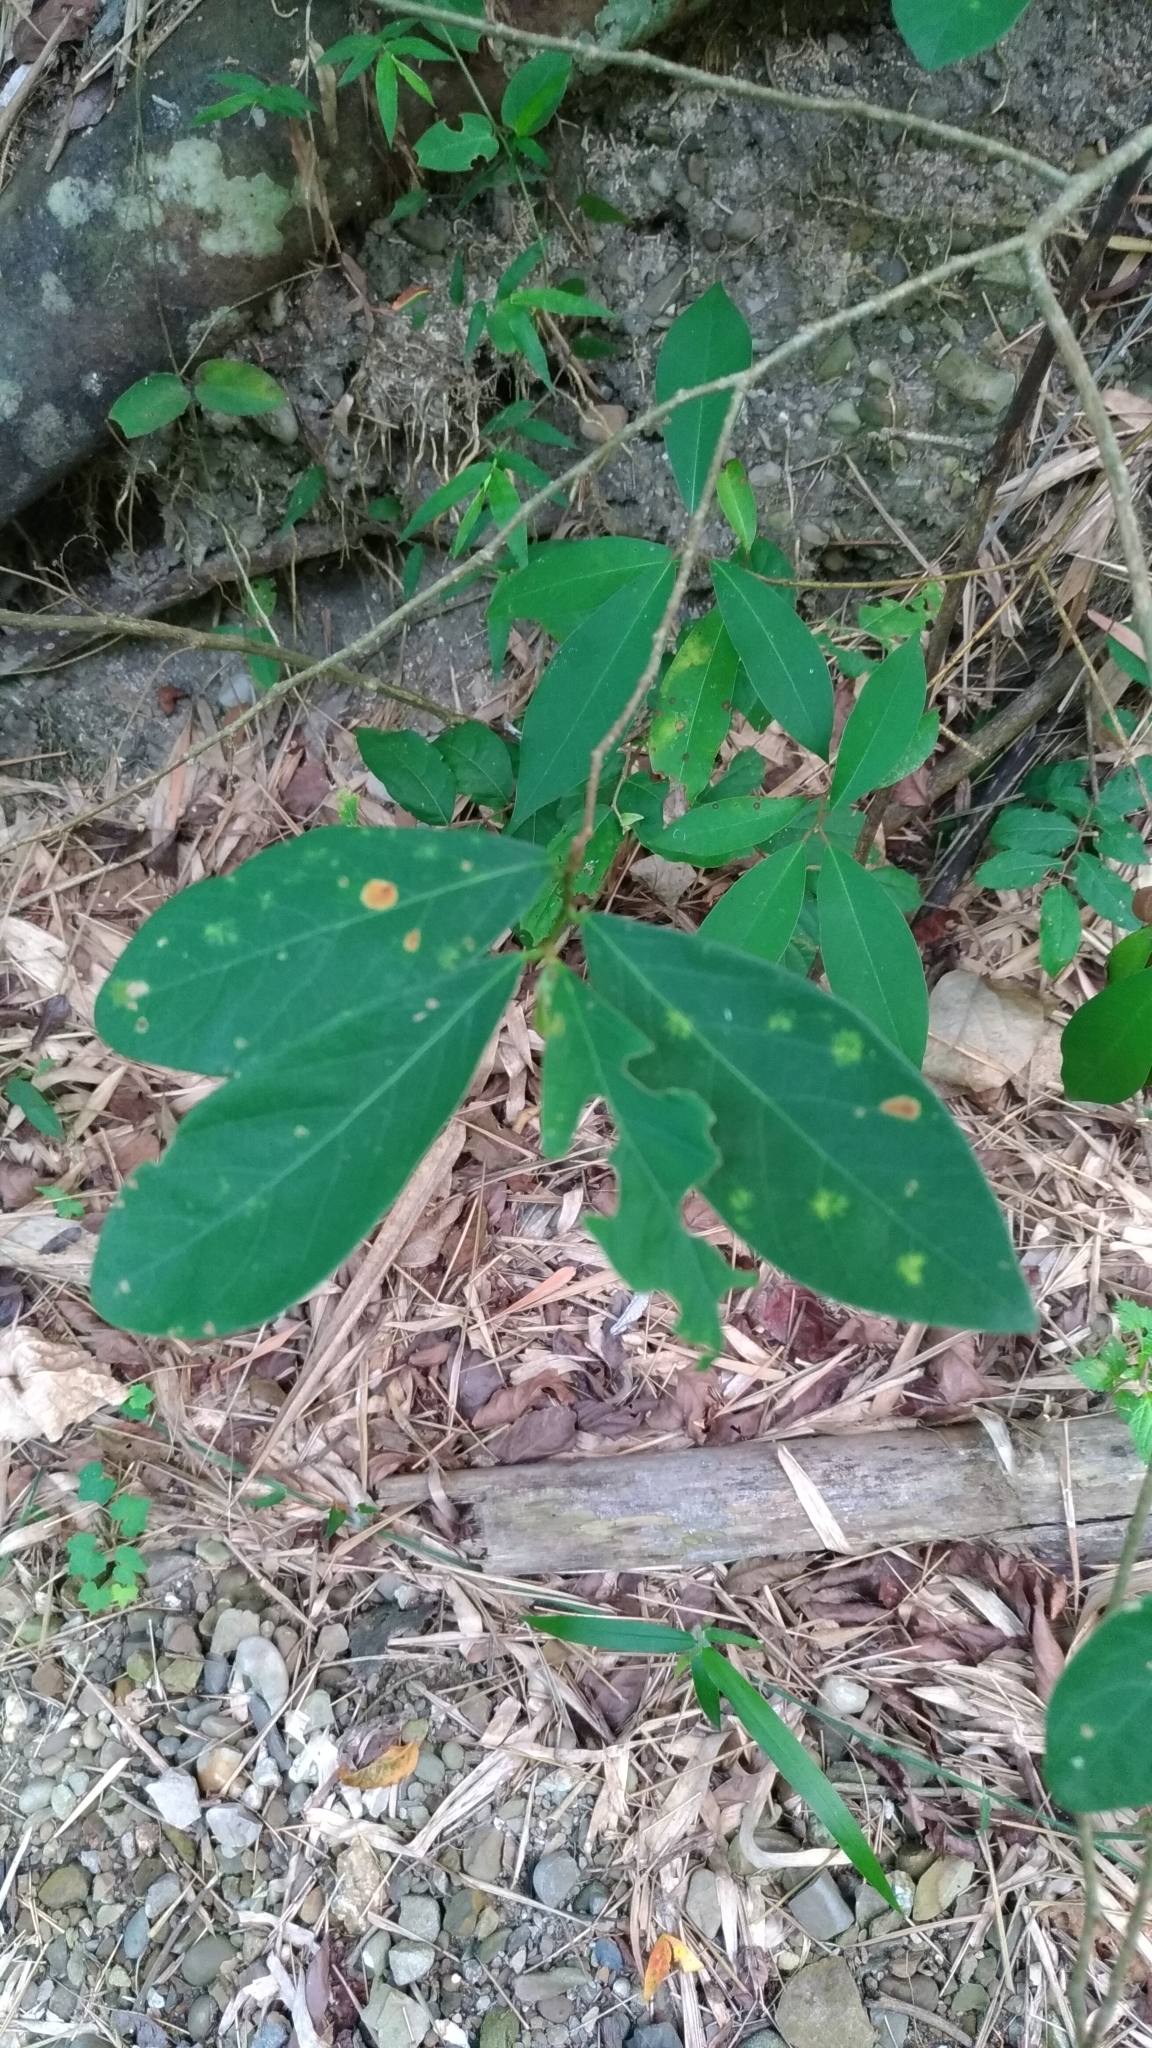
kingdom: Plantae
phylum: Tracheophyta
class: Magnoliopsida
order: Malpighiales
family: Phyllanthaceae
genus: Bridelia
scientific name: Bridelia tomentosa
